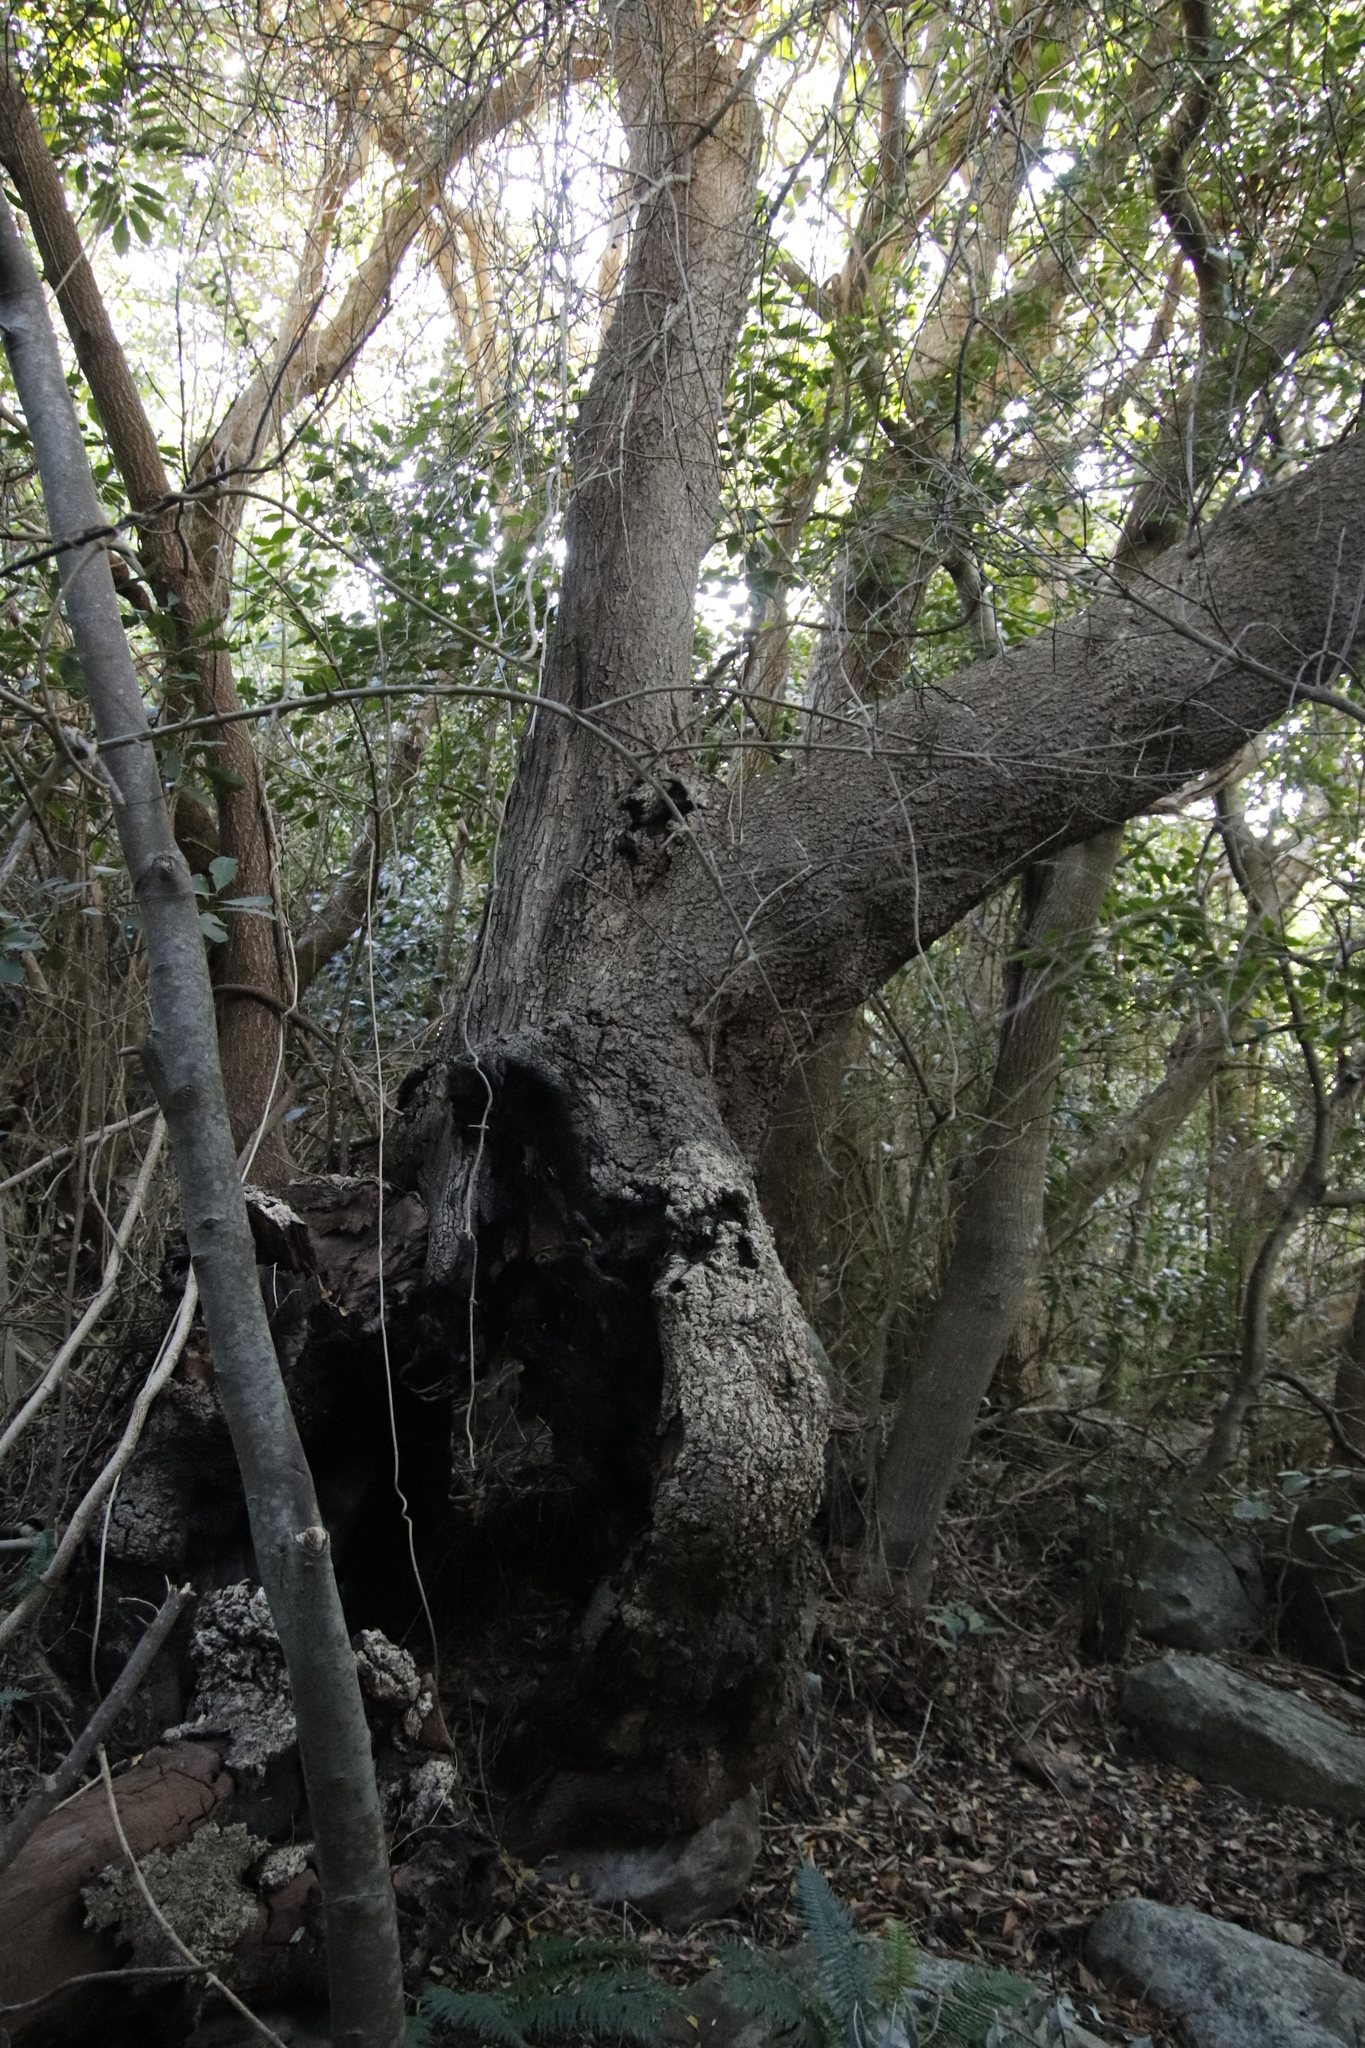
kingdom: Plantae
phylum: Tracheophyta
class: Magnoliopsida
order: Oxalidales
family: Cunoniaceae
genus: Cunonia
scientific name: Cunonia capensis
